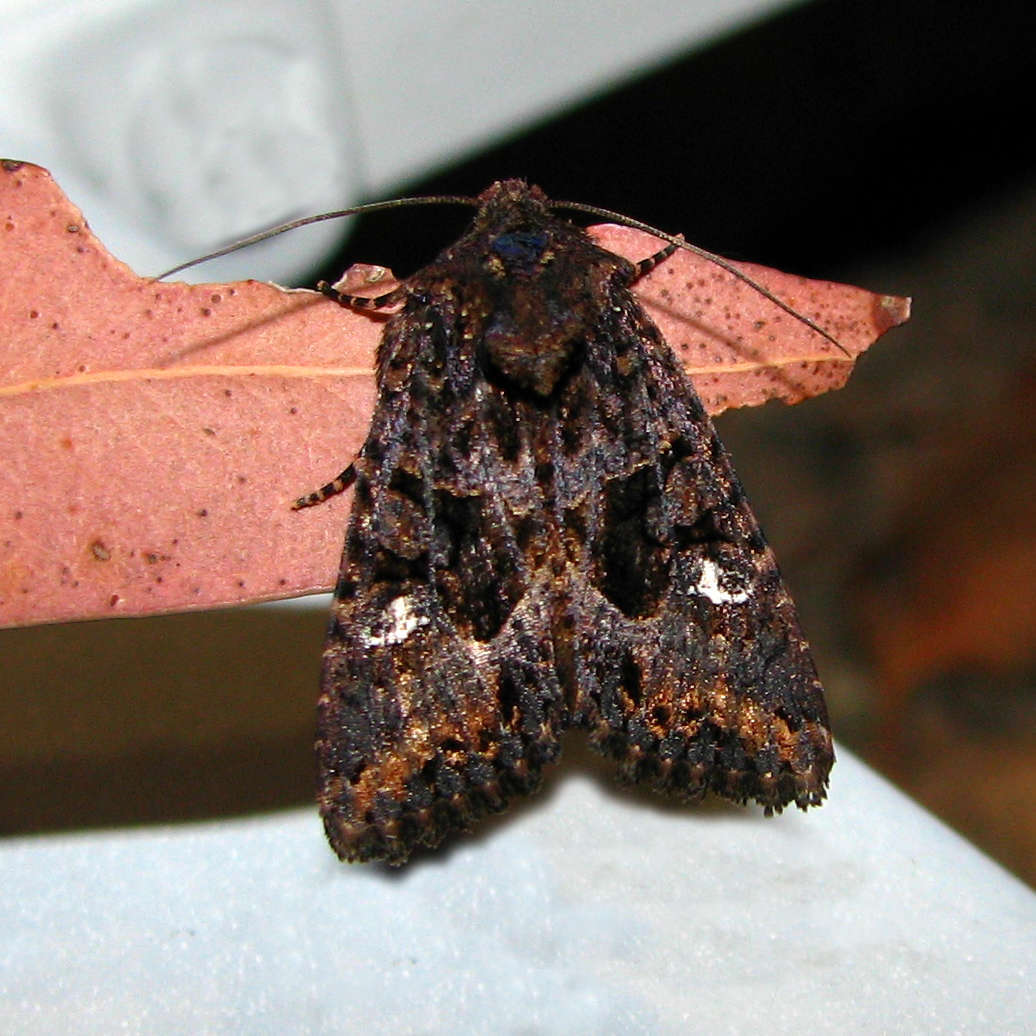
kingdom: Animalia
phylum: Arthropoda
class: Insecta
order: Lepidoptera
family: Noctuidae
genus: Neumichtis
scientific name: Neumichtis saliaris
